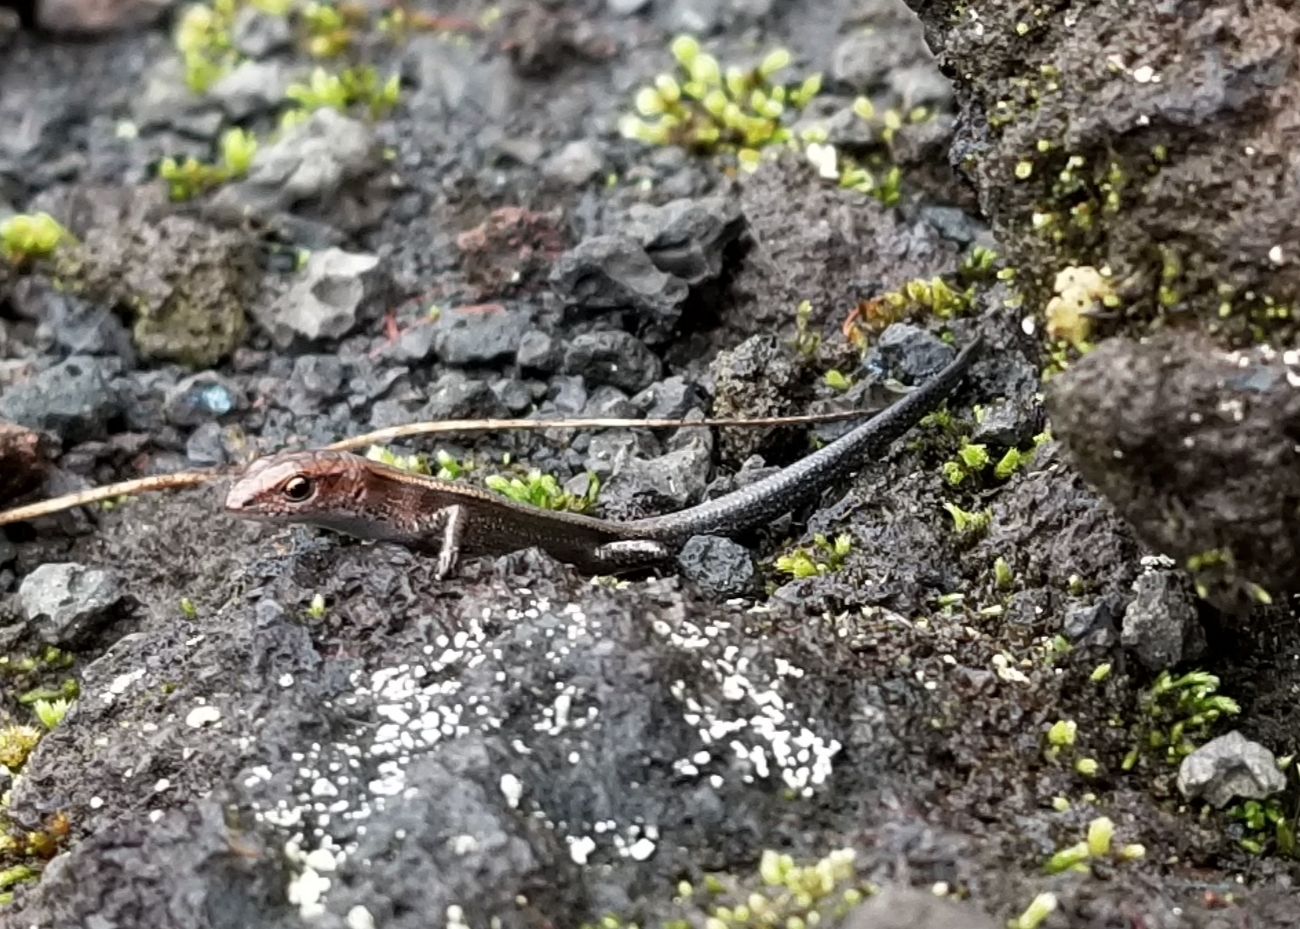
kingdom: Animalia
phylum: Chordata
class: Squamata
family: Scincidae
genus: Lampropholis
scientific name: Lampropholis delicata
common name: Plague skink
